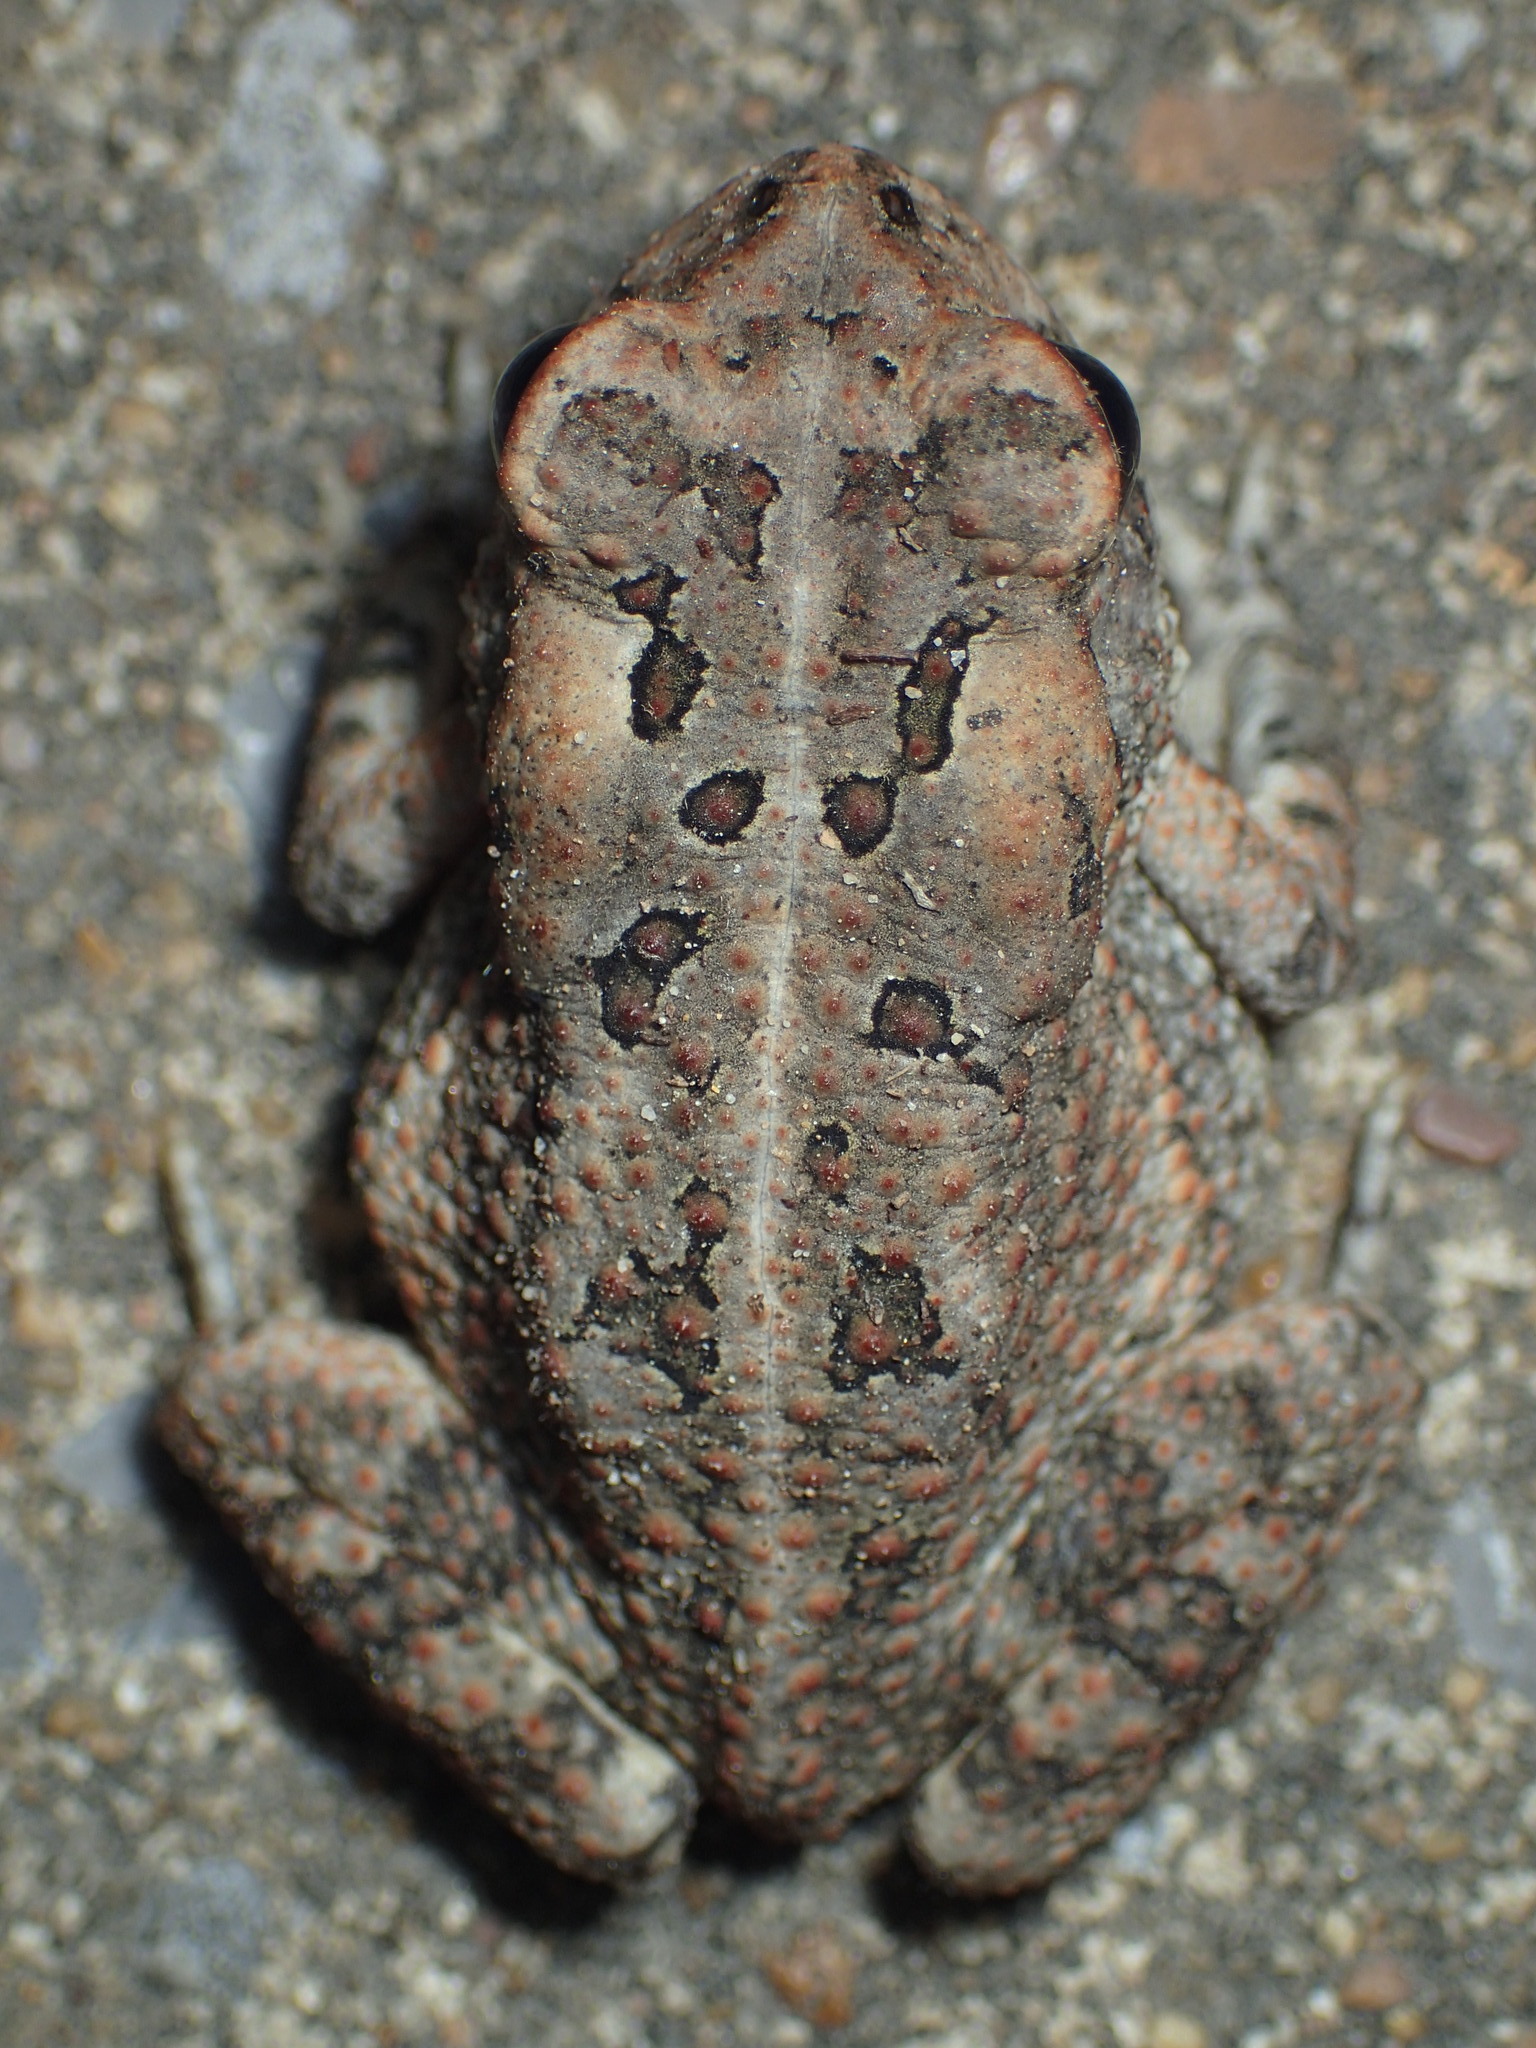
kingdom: Animalia
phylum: Chordata
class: Amphibia
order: Anura
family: Bufonidae
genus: Anaxyrus
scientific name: Anaxyrus fowleri
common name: Fowler's toad
